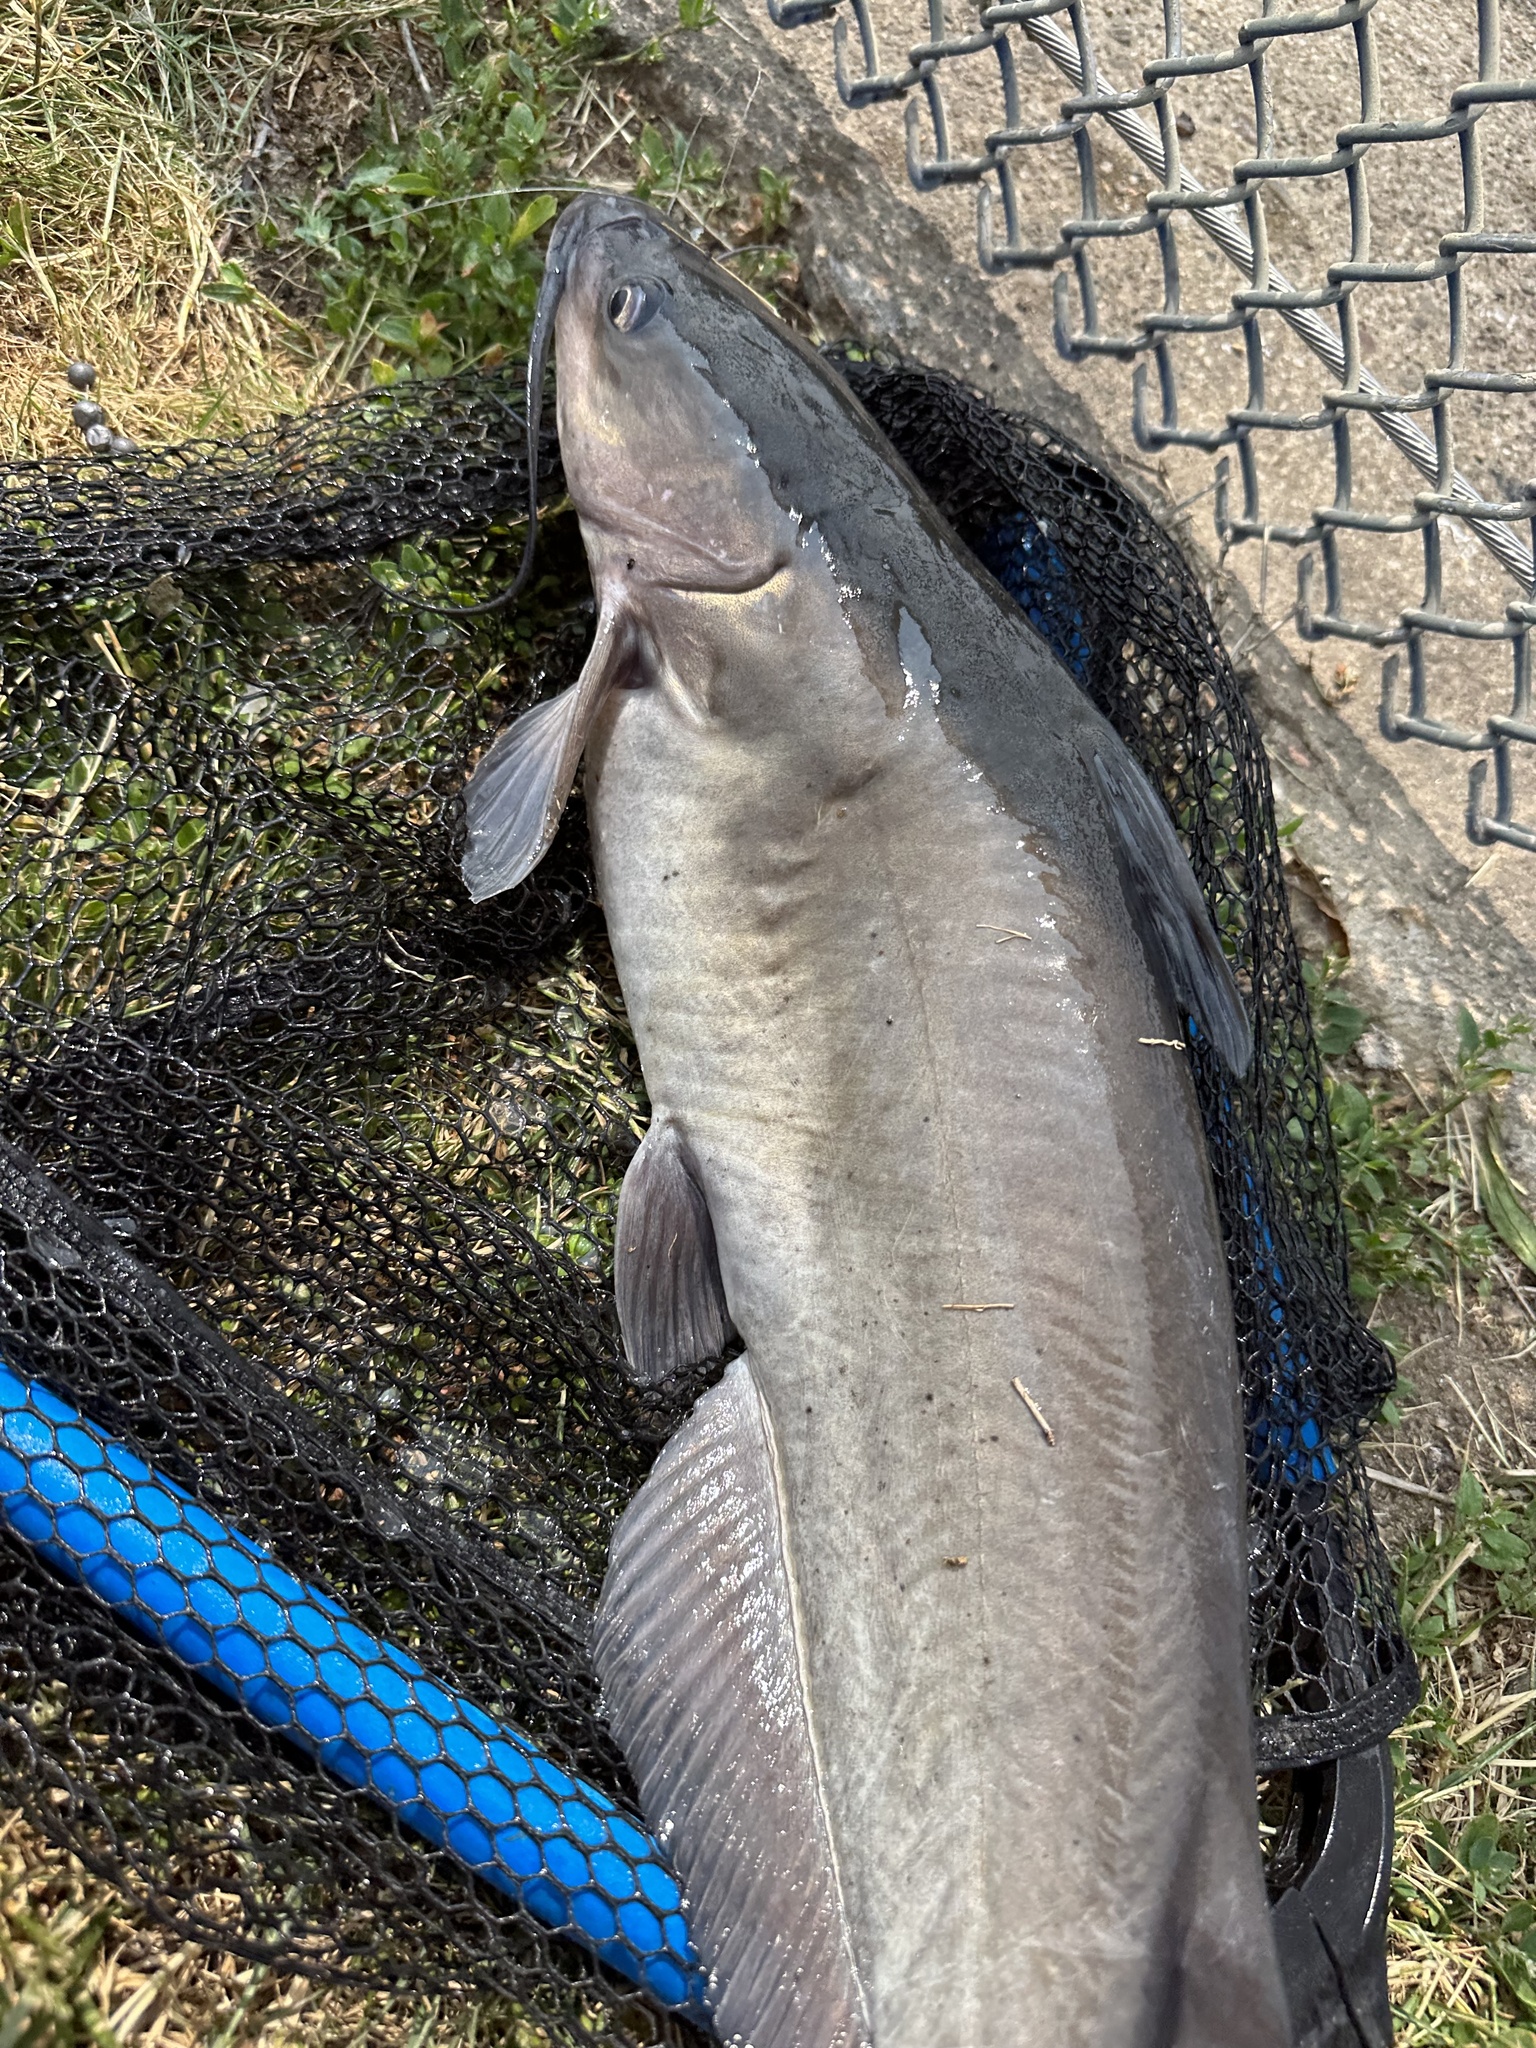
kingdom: Animalia
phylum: Chordata
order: Siluriformes
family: Ictaluridae
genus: Ictalurus
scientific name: Ictalurus punctatus
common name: Channel catfish
